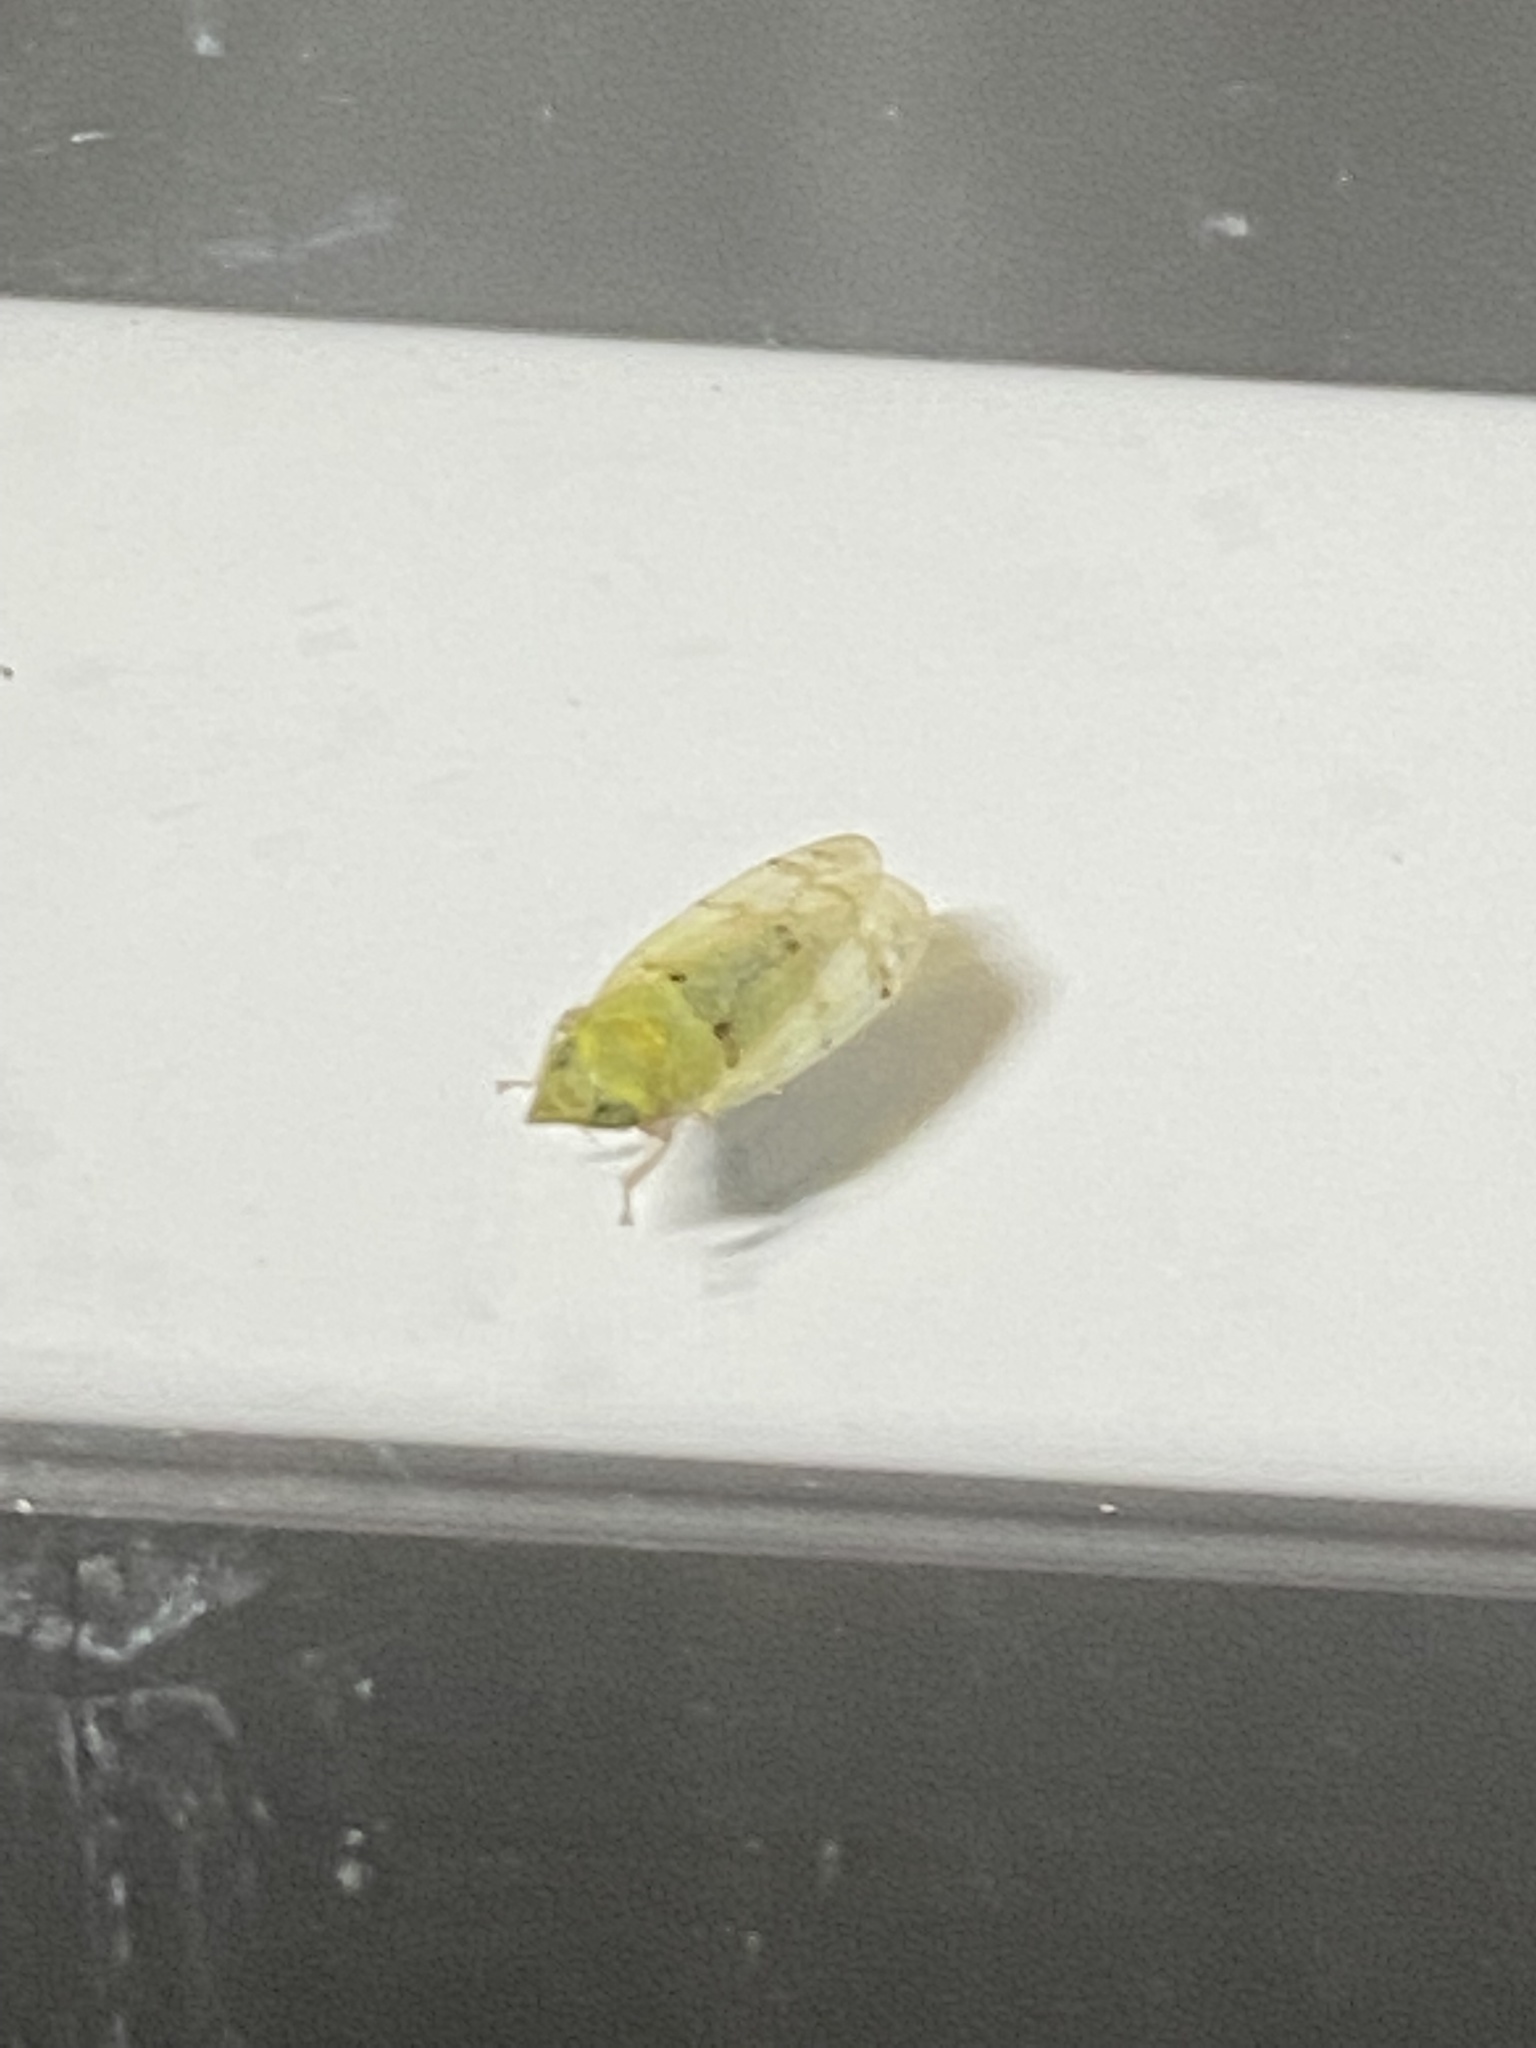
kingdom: Animalia
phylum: Arthropoda
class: Insecta
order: Hemiptera
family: Cicadellidae
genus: Japananus
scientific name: Japananus hyalinus
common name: The japanese maple leafhopper
